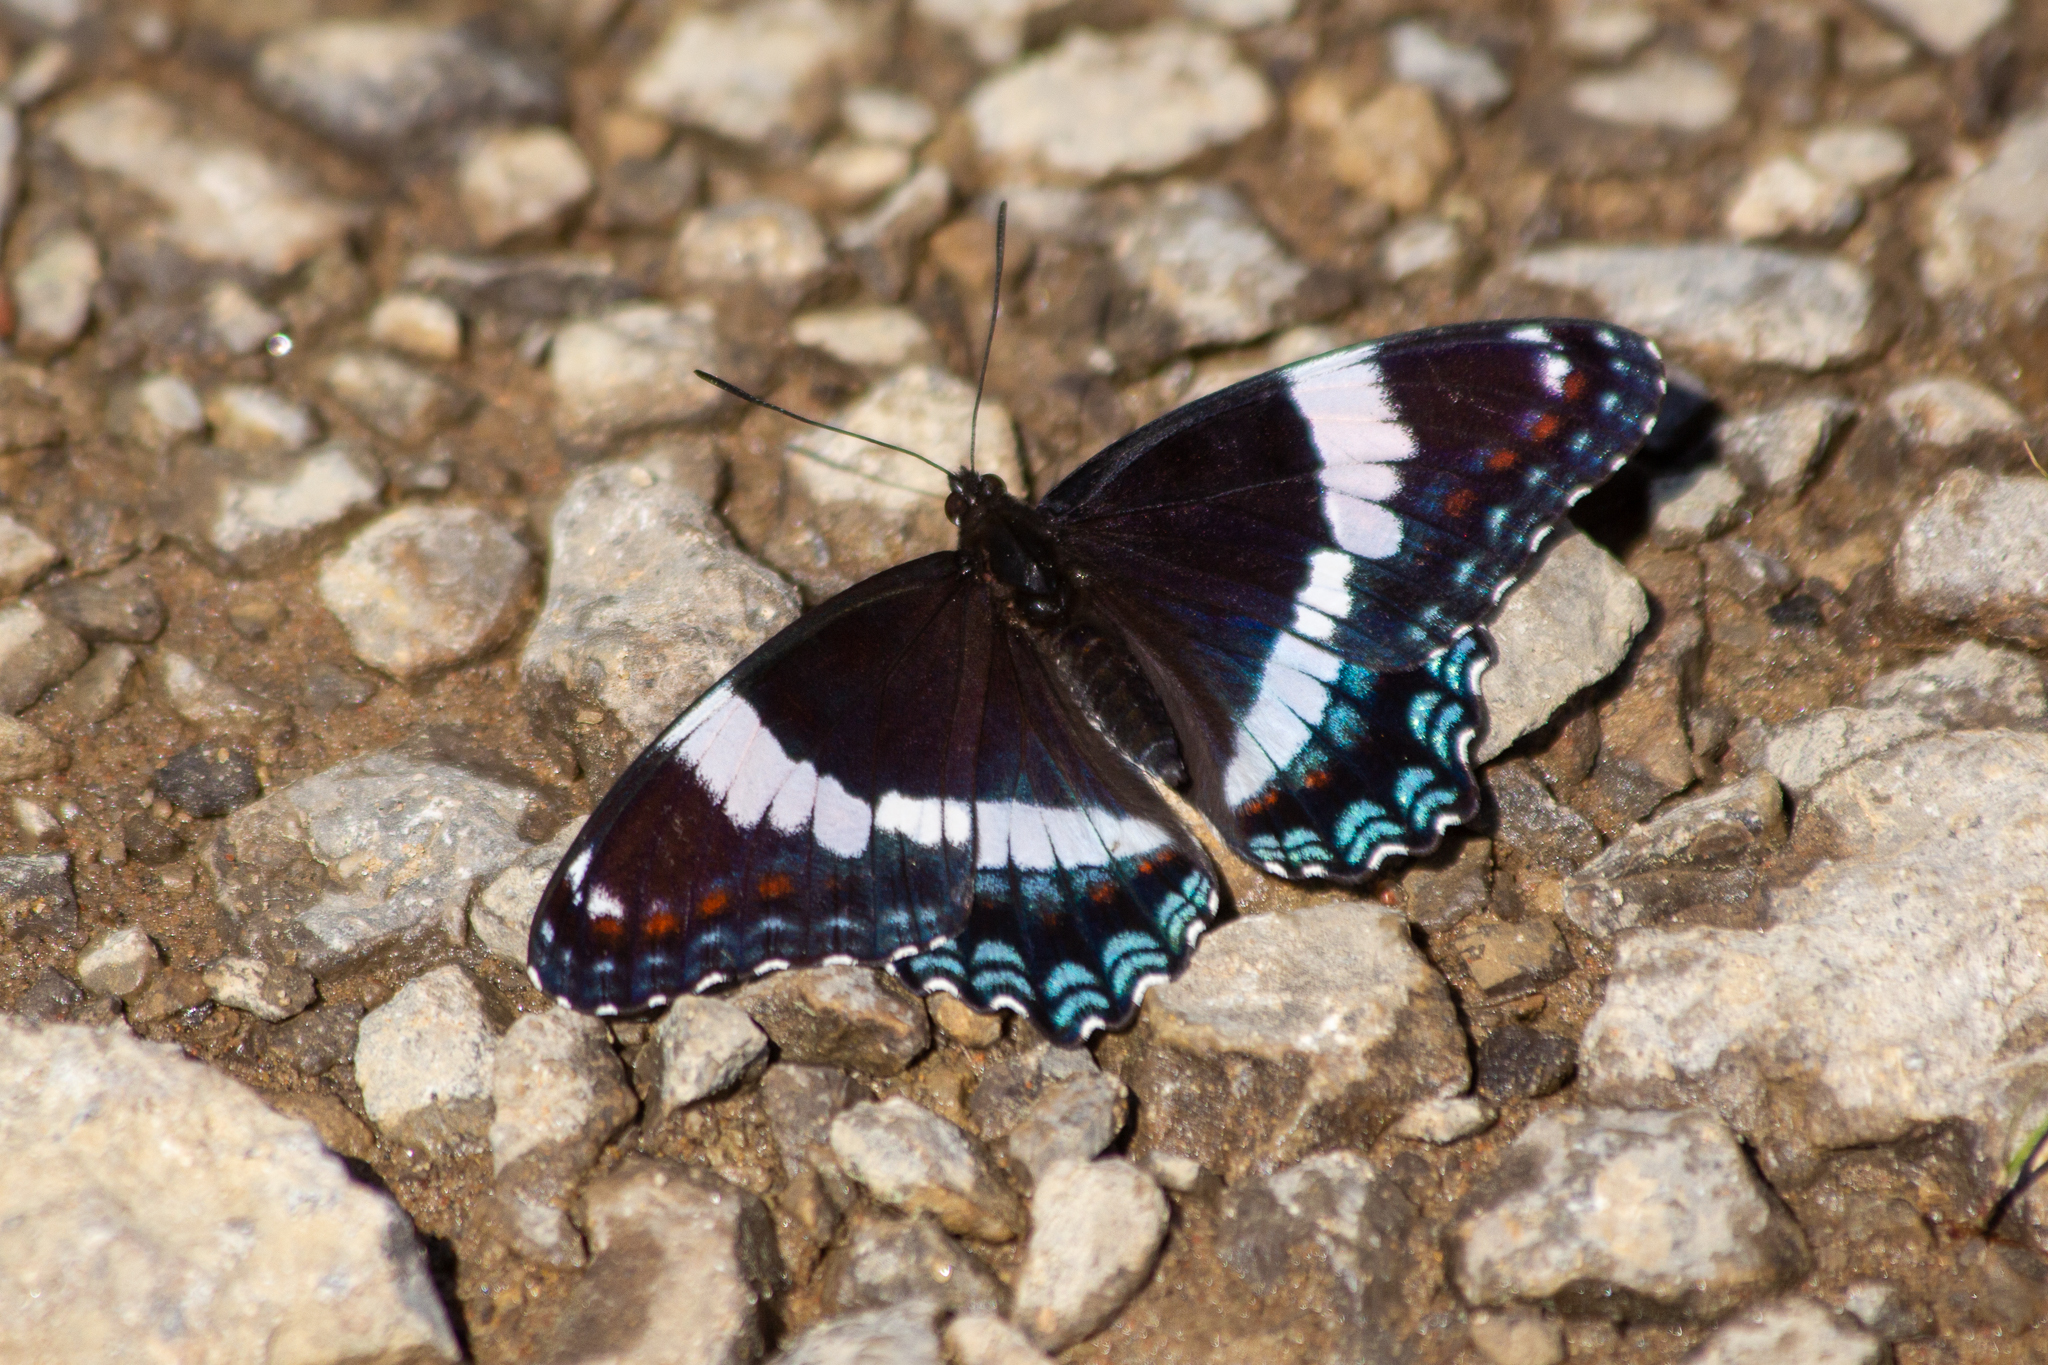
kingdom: Animalia
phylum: Arthropoda
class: Insecta
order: Lepidoptera
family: Nymphalidae
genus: Limenitis
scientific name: Limenitis arthemis
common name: Red-spotted admiral
